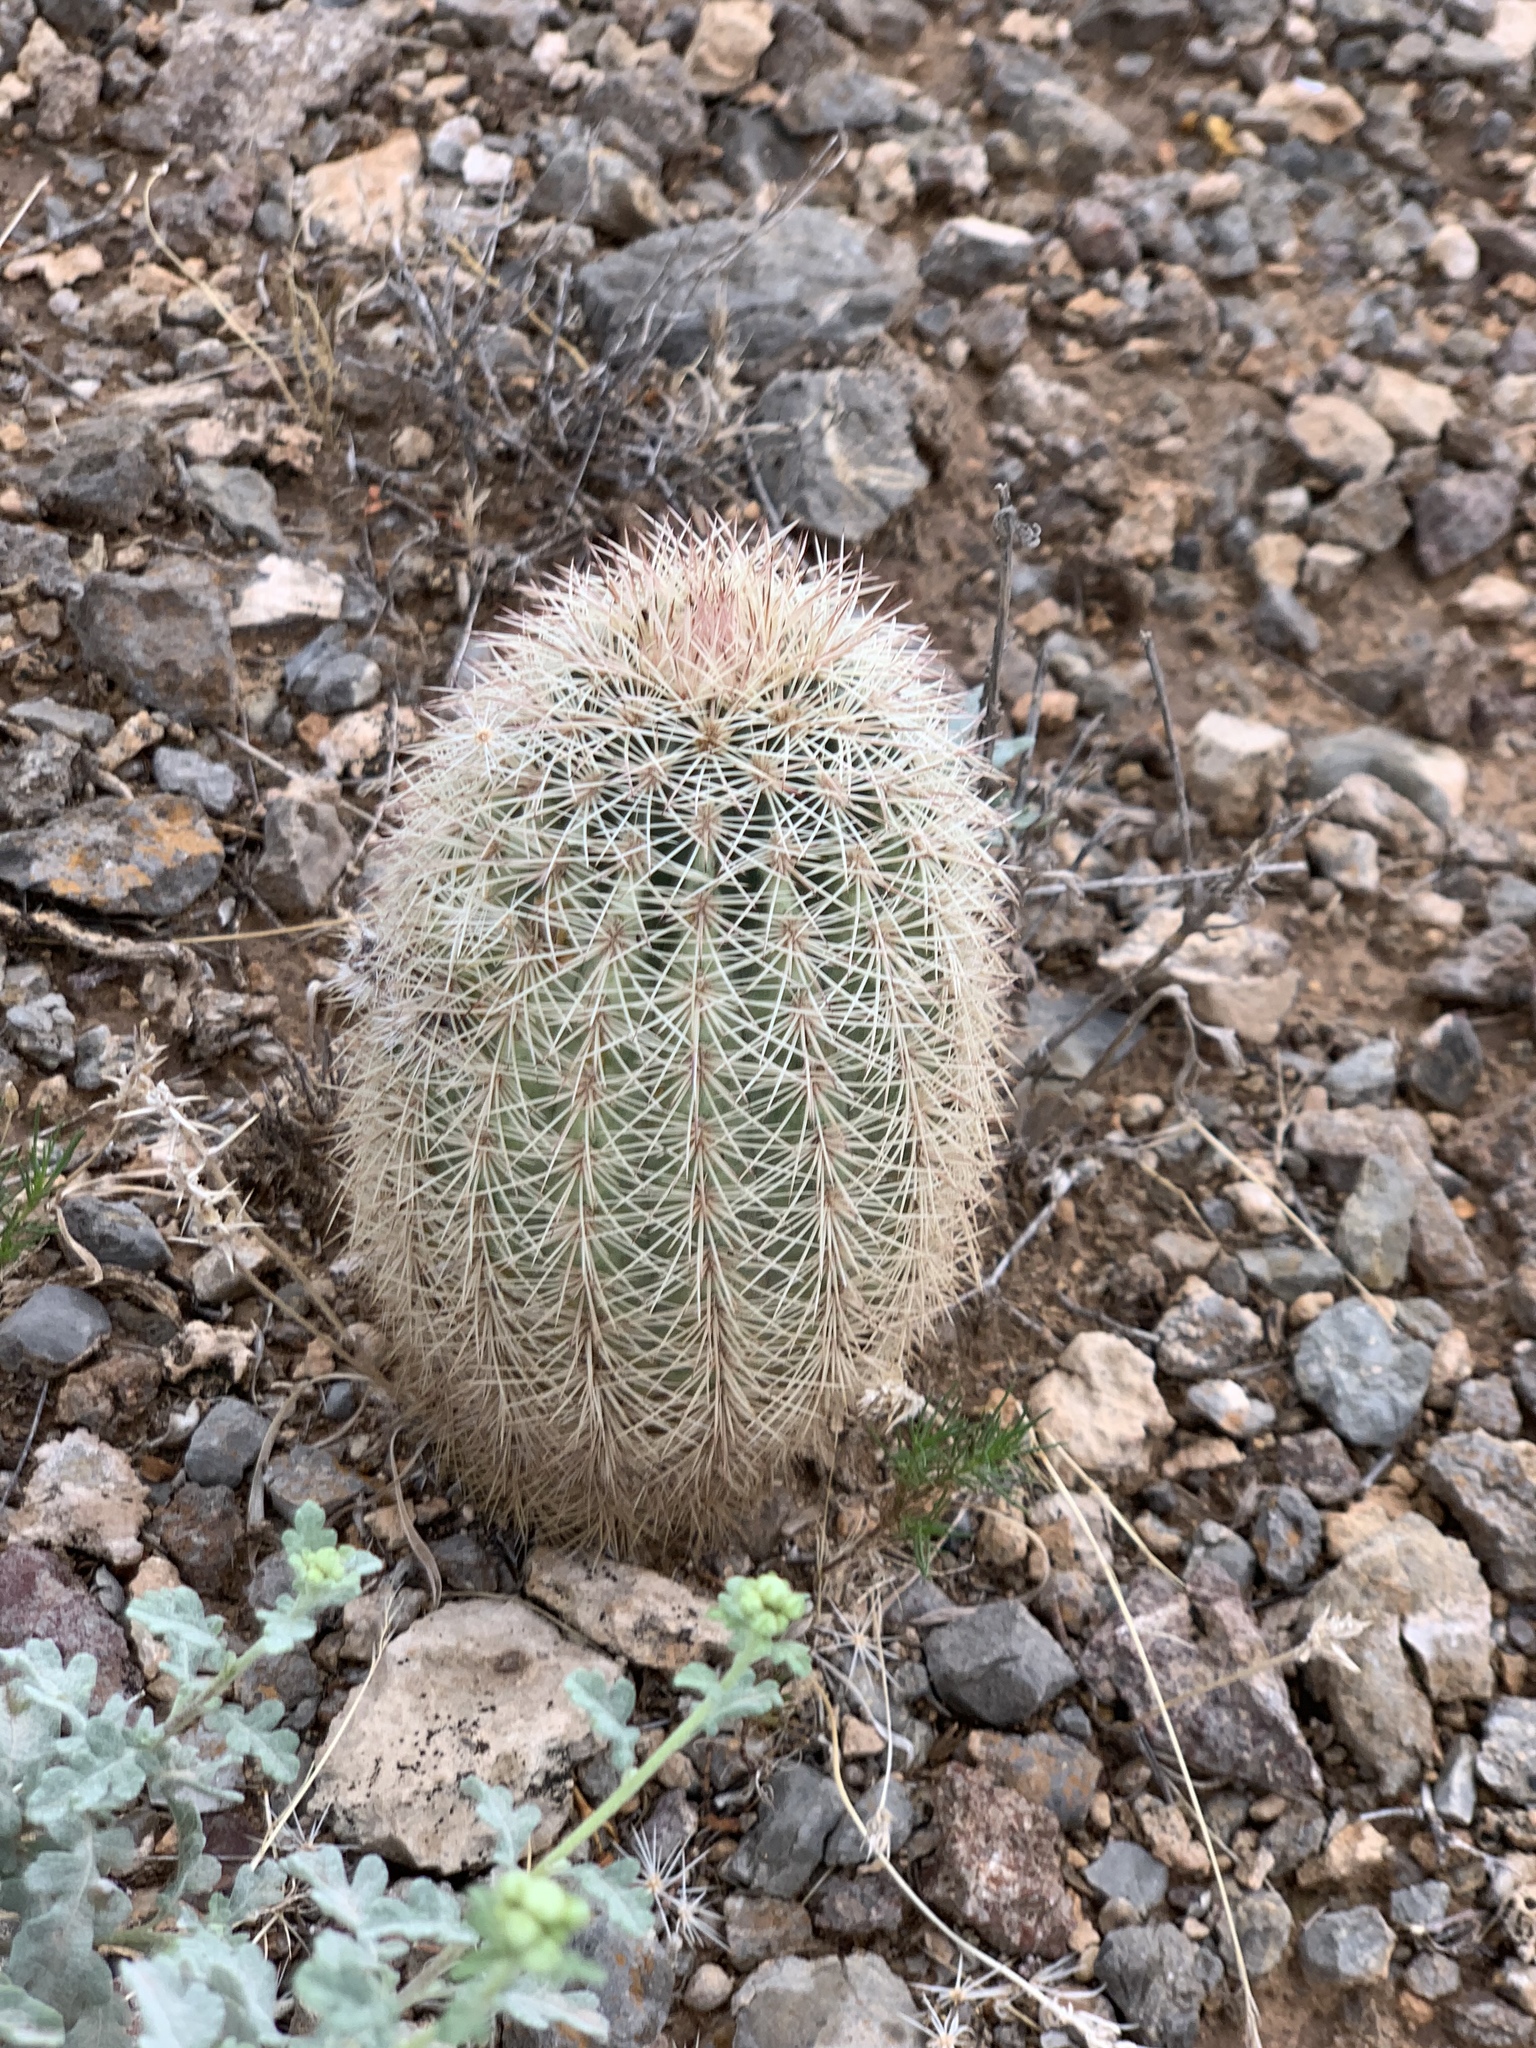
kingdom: Plantae
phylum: Tracheophyta
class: Magnoliopsida
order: Caryophyllales
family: Cactaceae
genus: Echinocereus
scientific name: Echinocereus dasyacanthus
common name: Spiny hedgehog cactus
